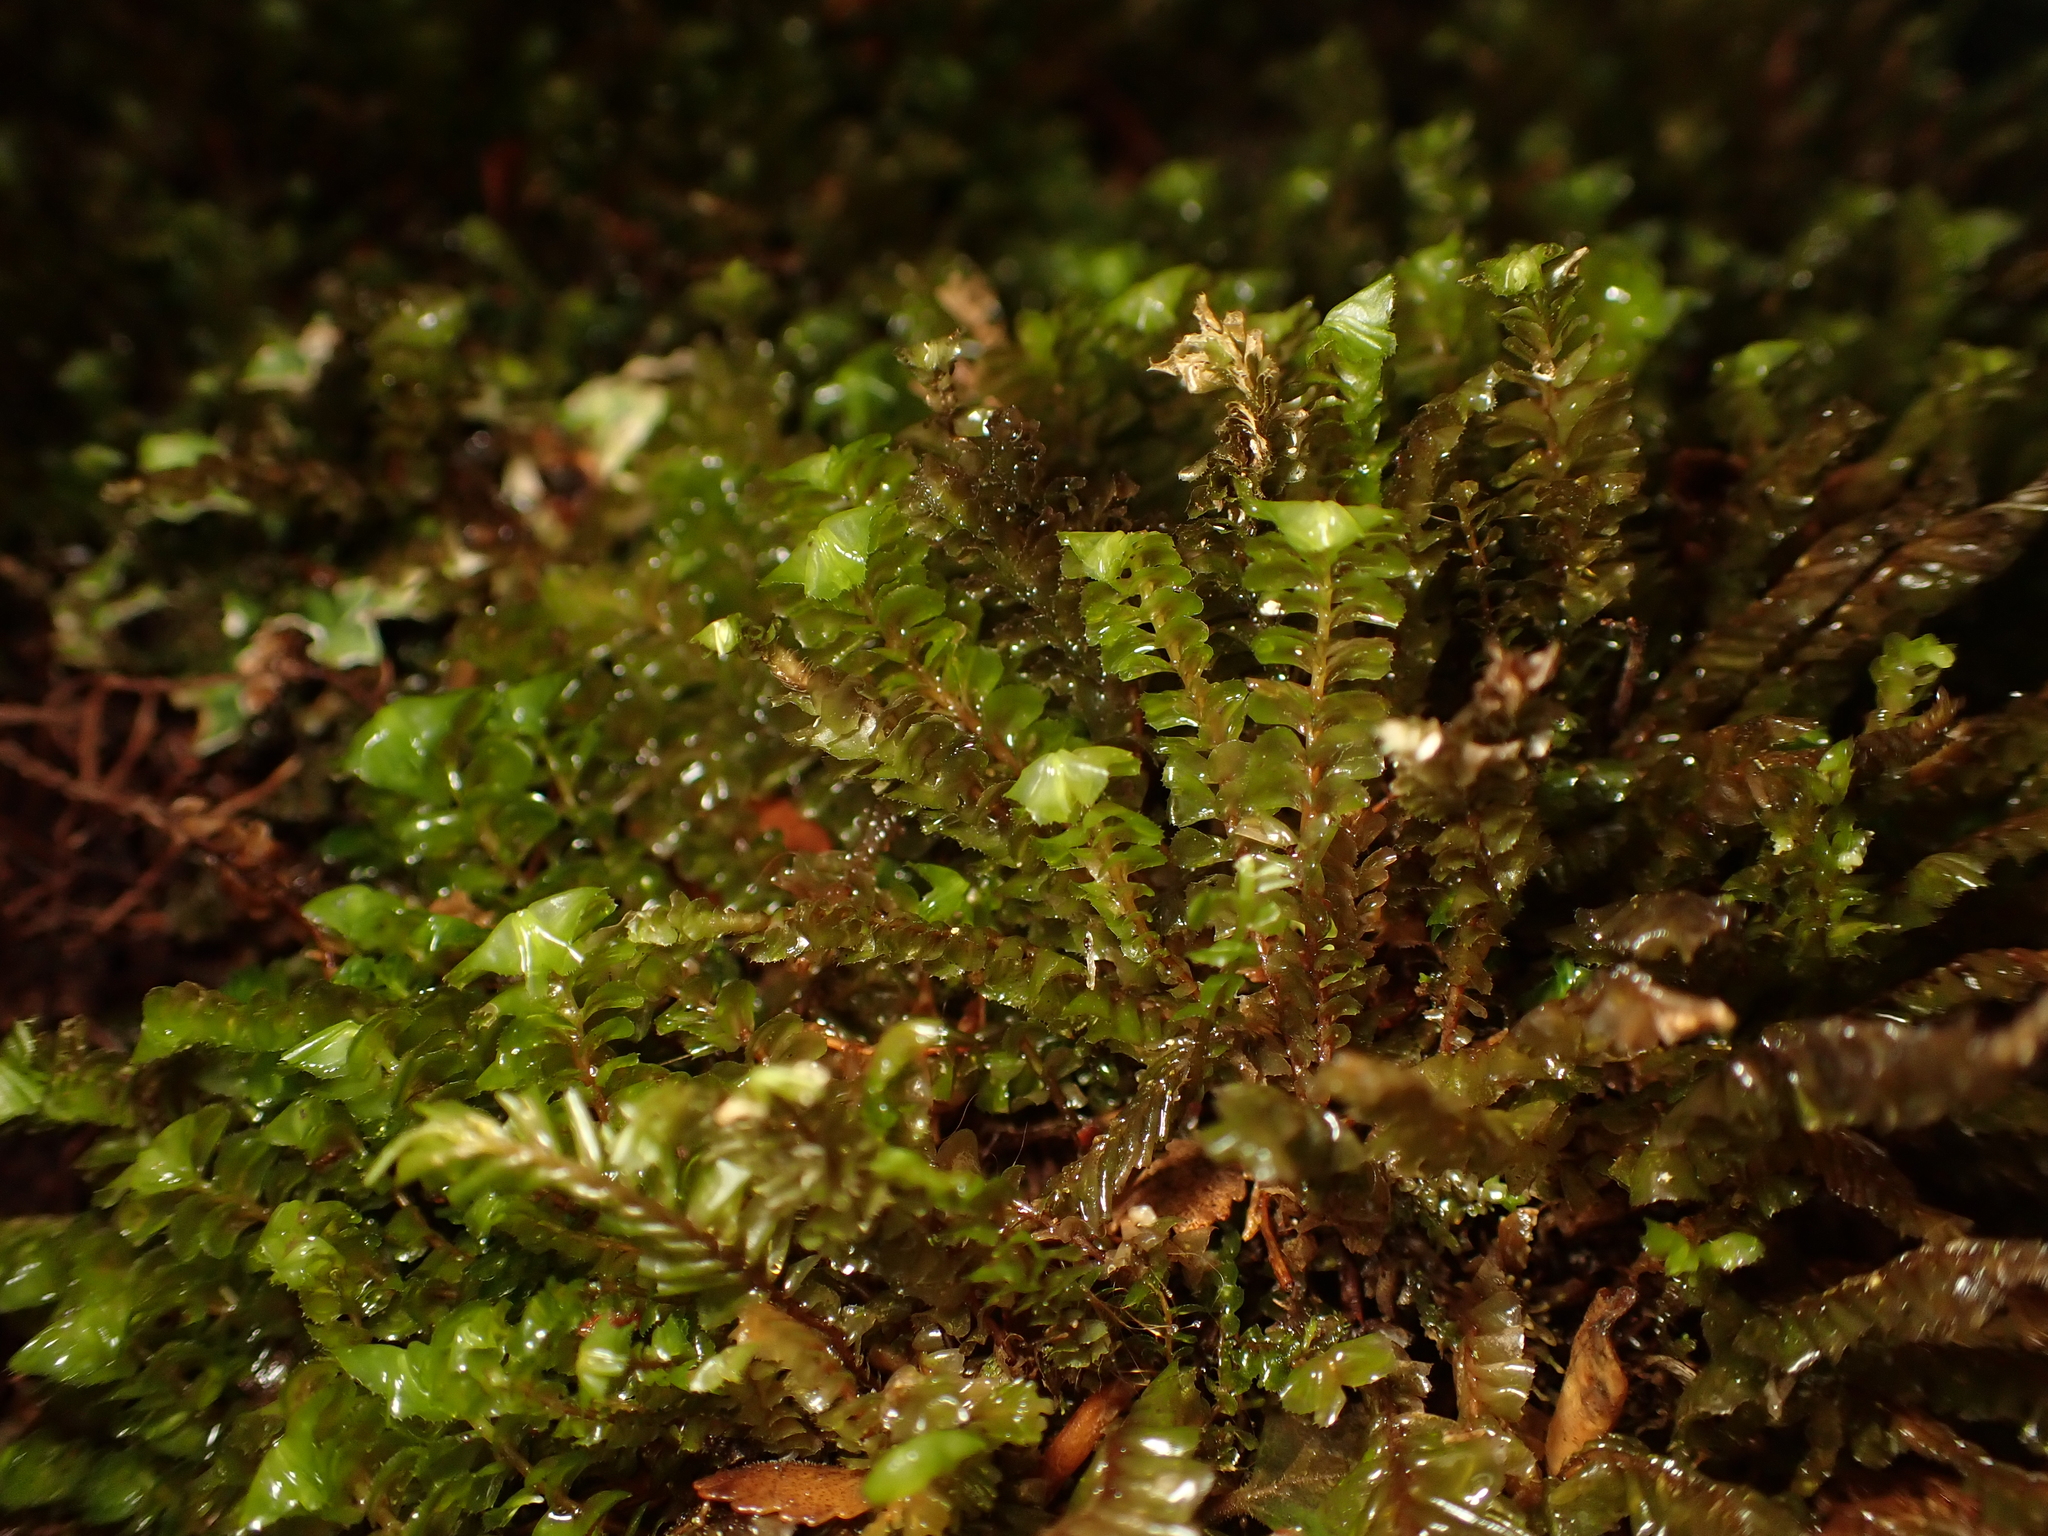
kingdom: Plantae
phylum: Marchantiophyta
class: Jungermanniopsida
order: Jungermanniales
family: Plagiochilaceae
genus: Plagiochila
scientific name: Plagiochila deltoidea
